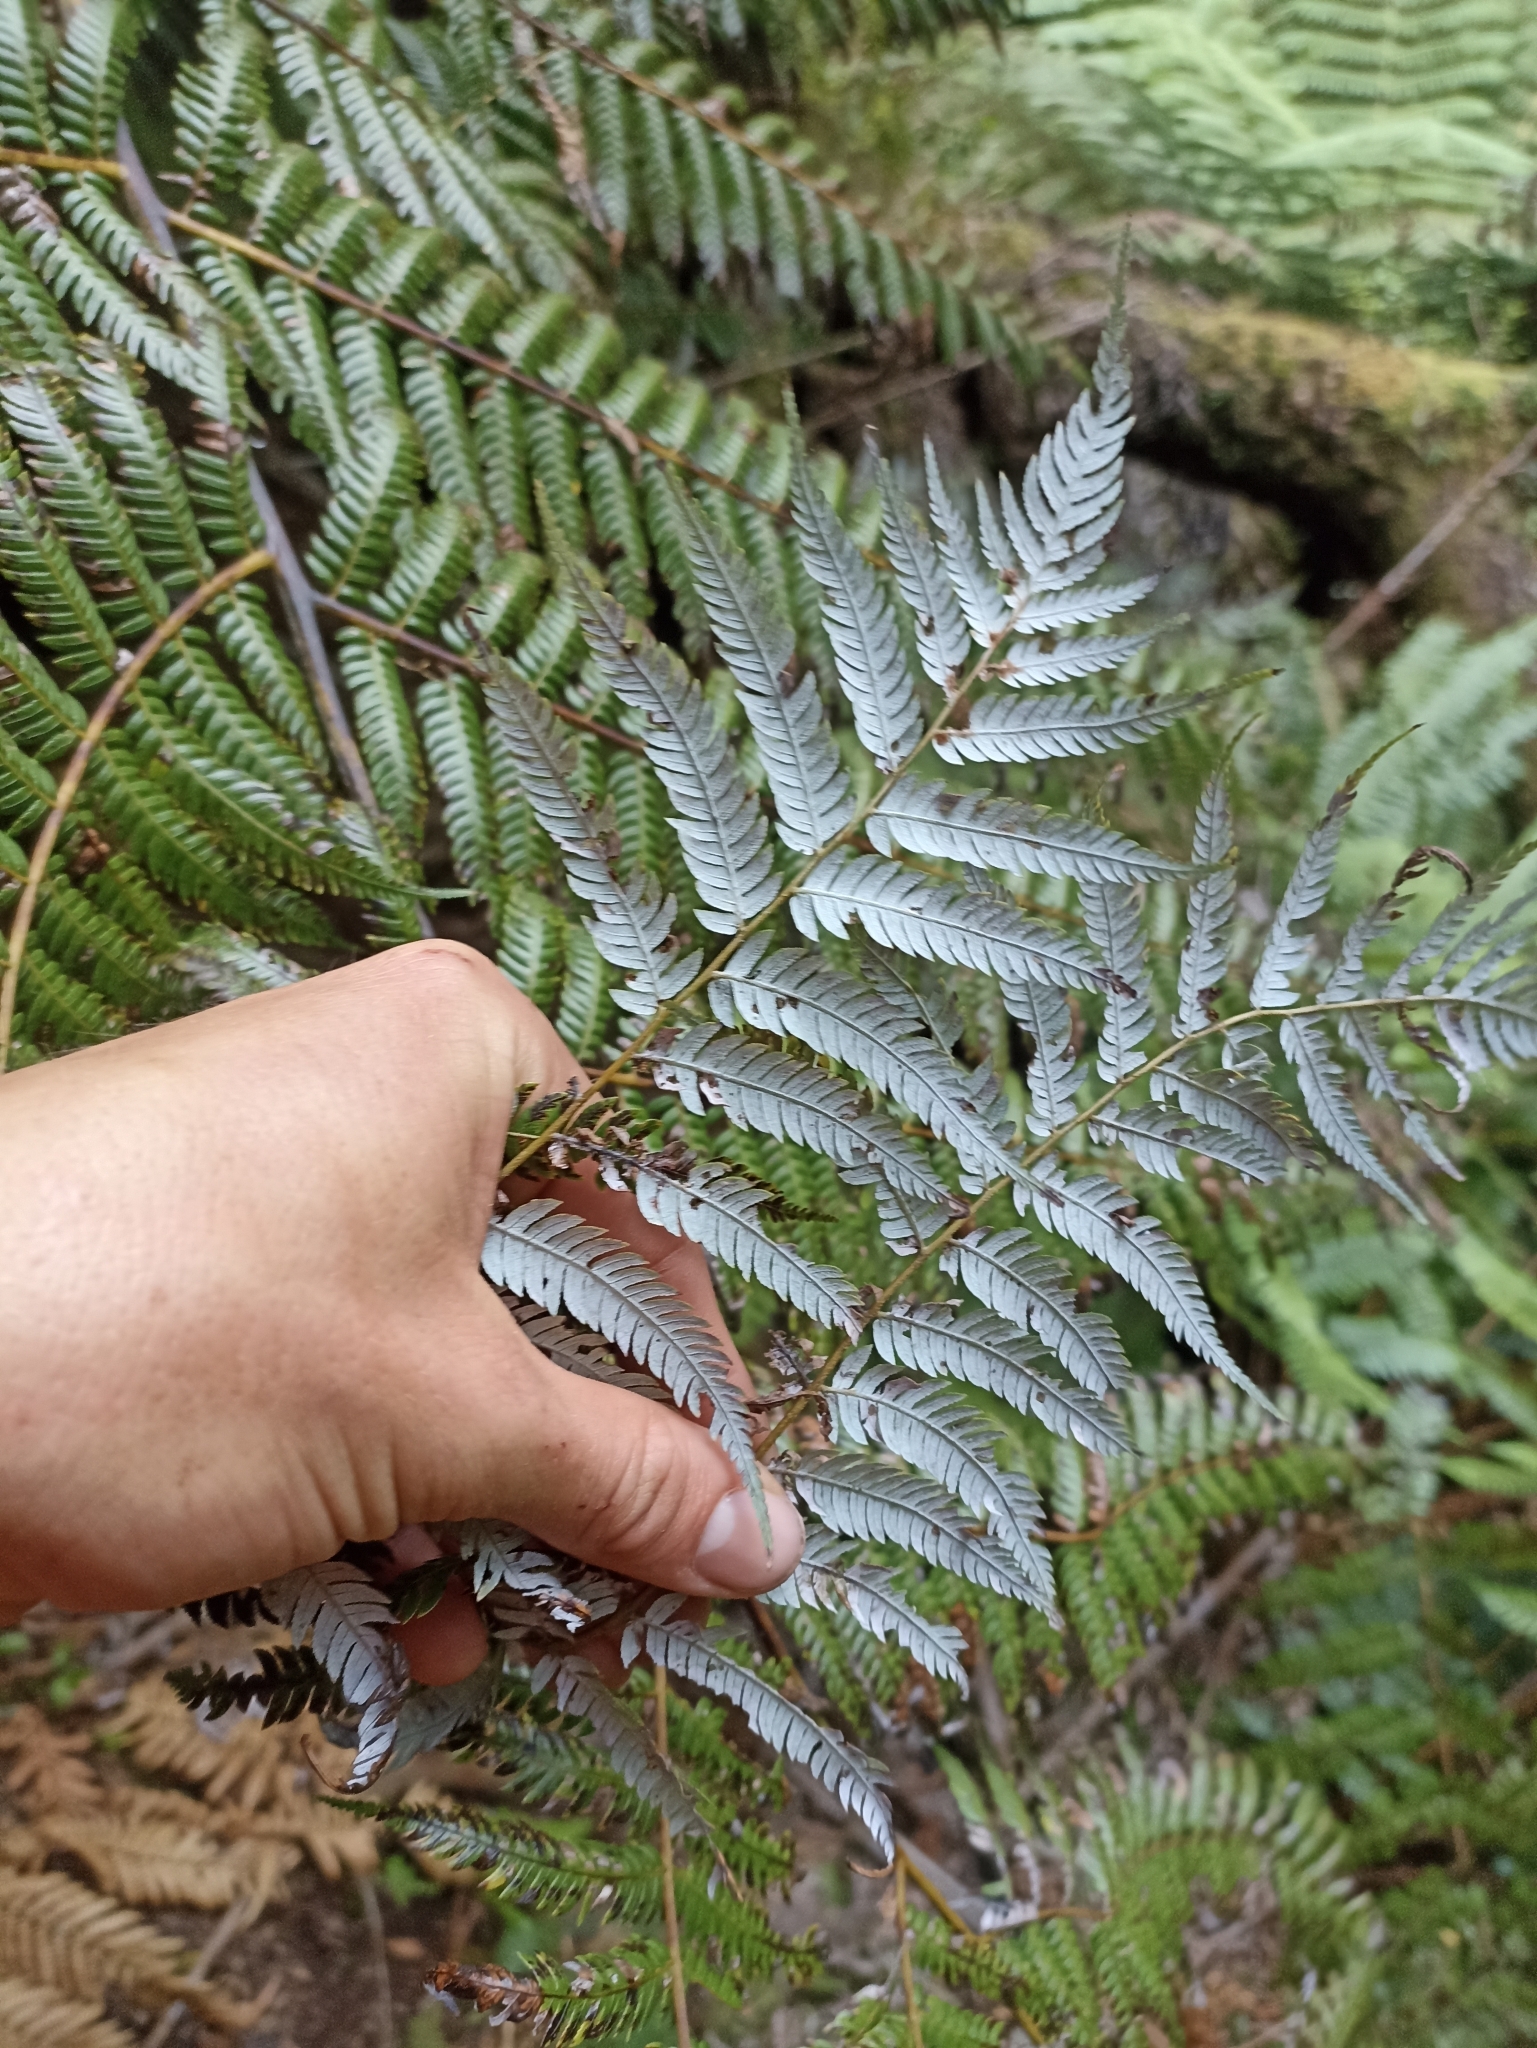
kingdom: Plantae
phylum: Tracheophyta
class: Polypodiopsida
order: Cyatheales
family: Cyatheaceae
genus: Alsophila
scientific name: Alsophila dealbata
